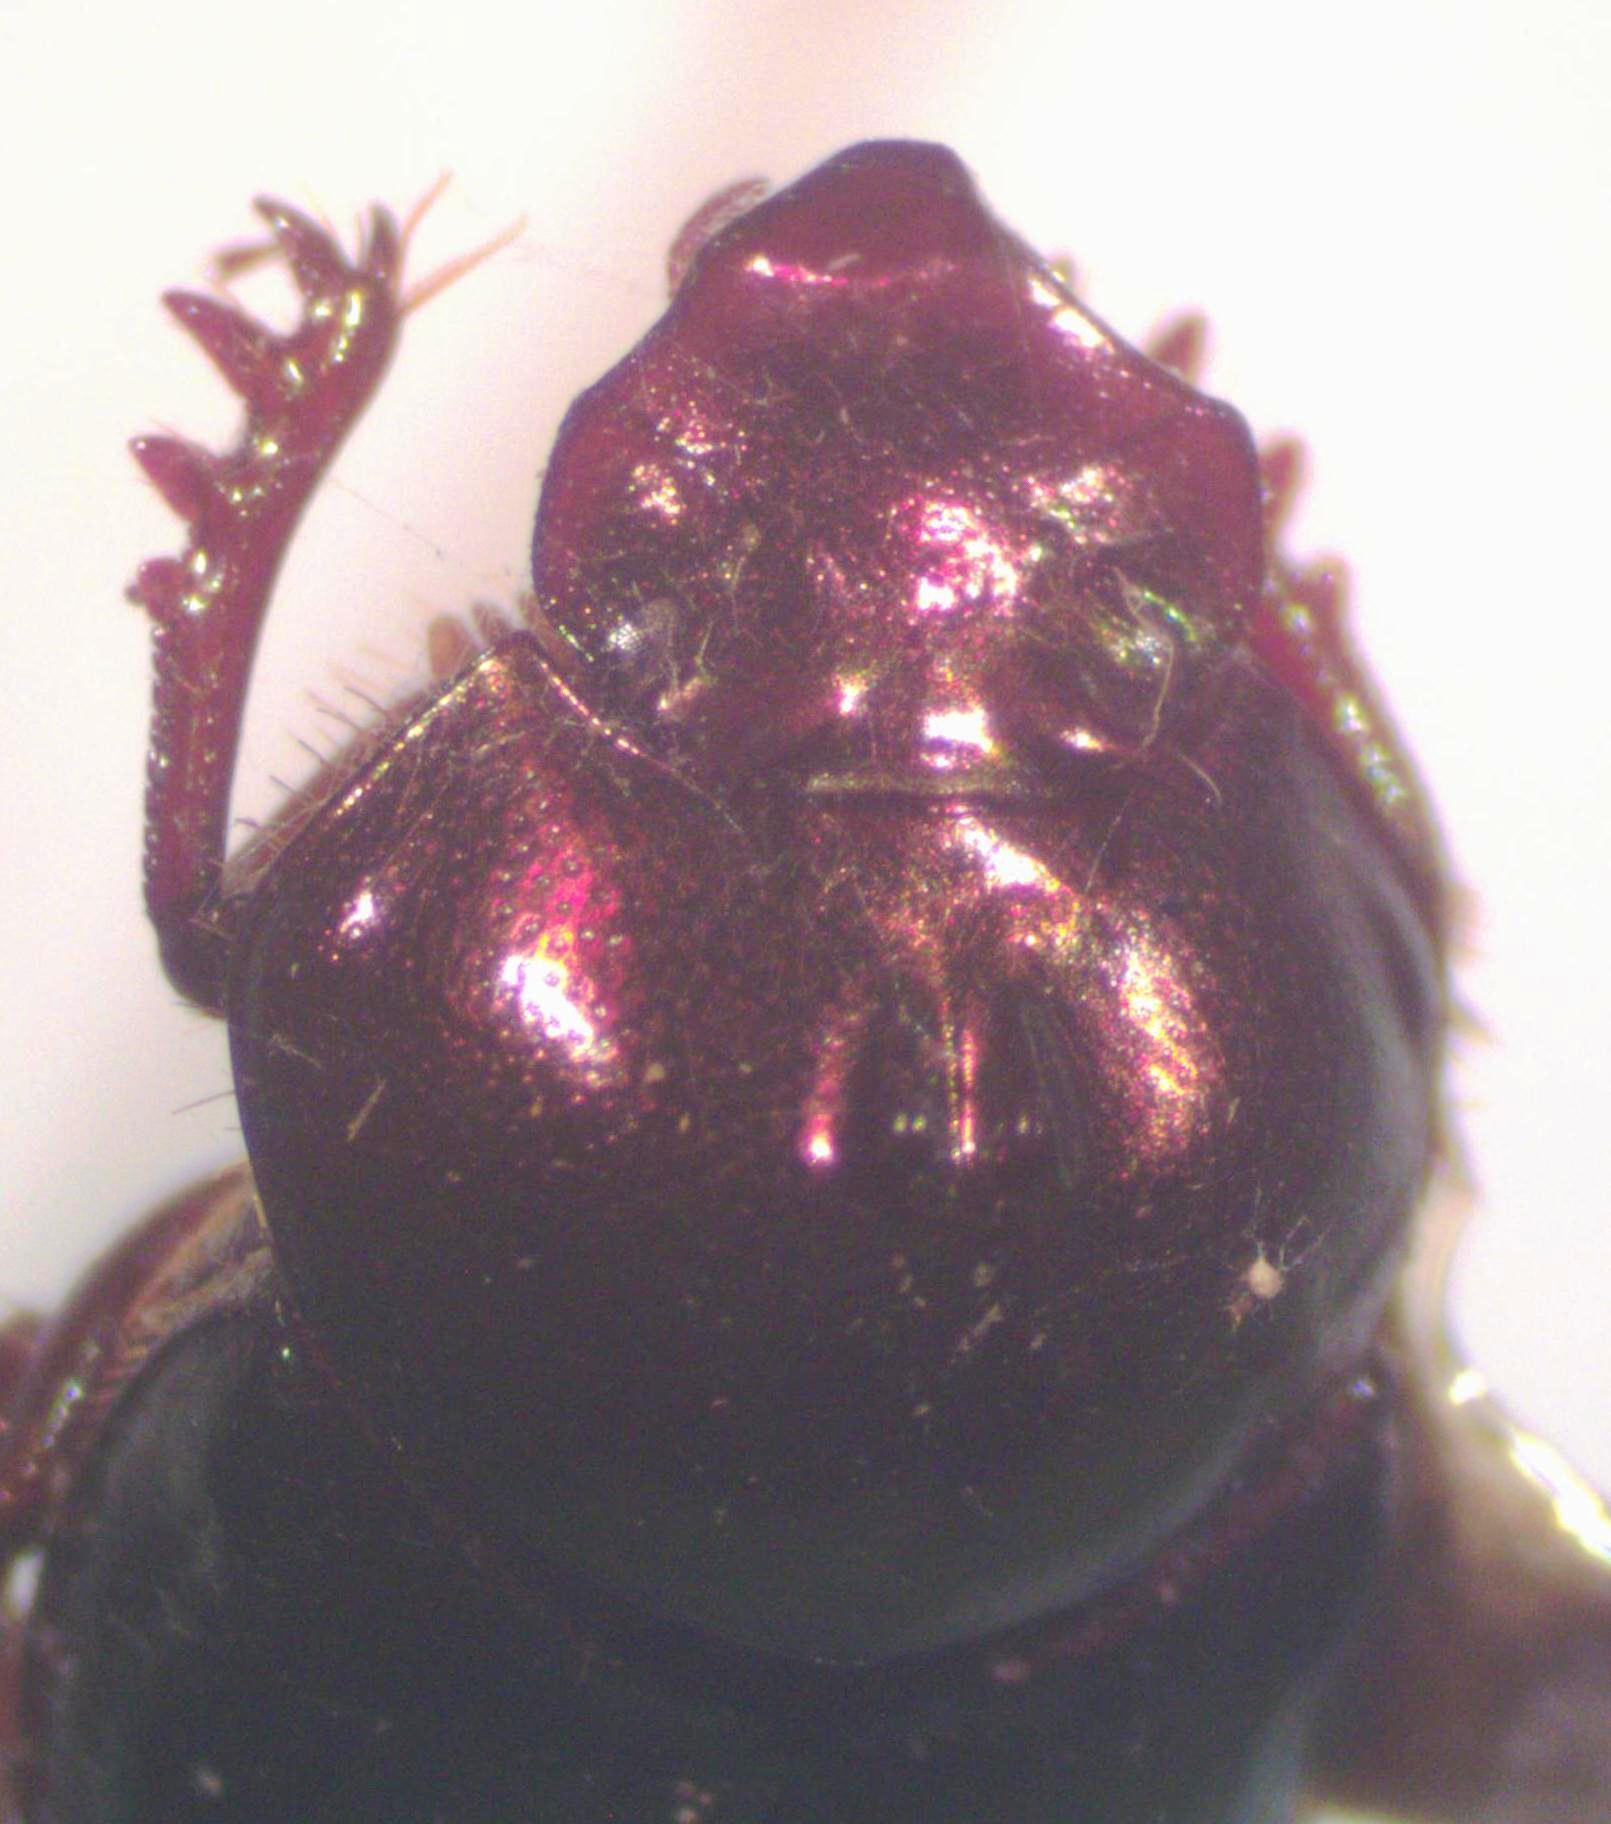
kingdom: Animalia
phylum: Arthropoda
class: Insecta
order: Coleoptera
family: Scarabaeidae
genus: Onthophagus
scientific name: Onthophagus viridivinosus
